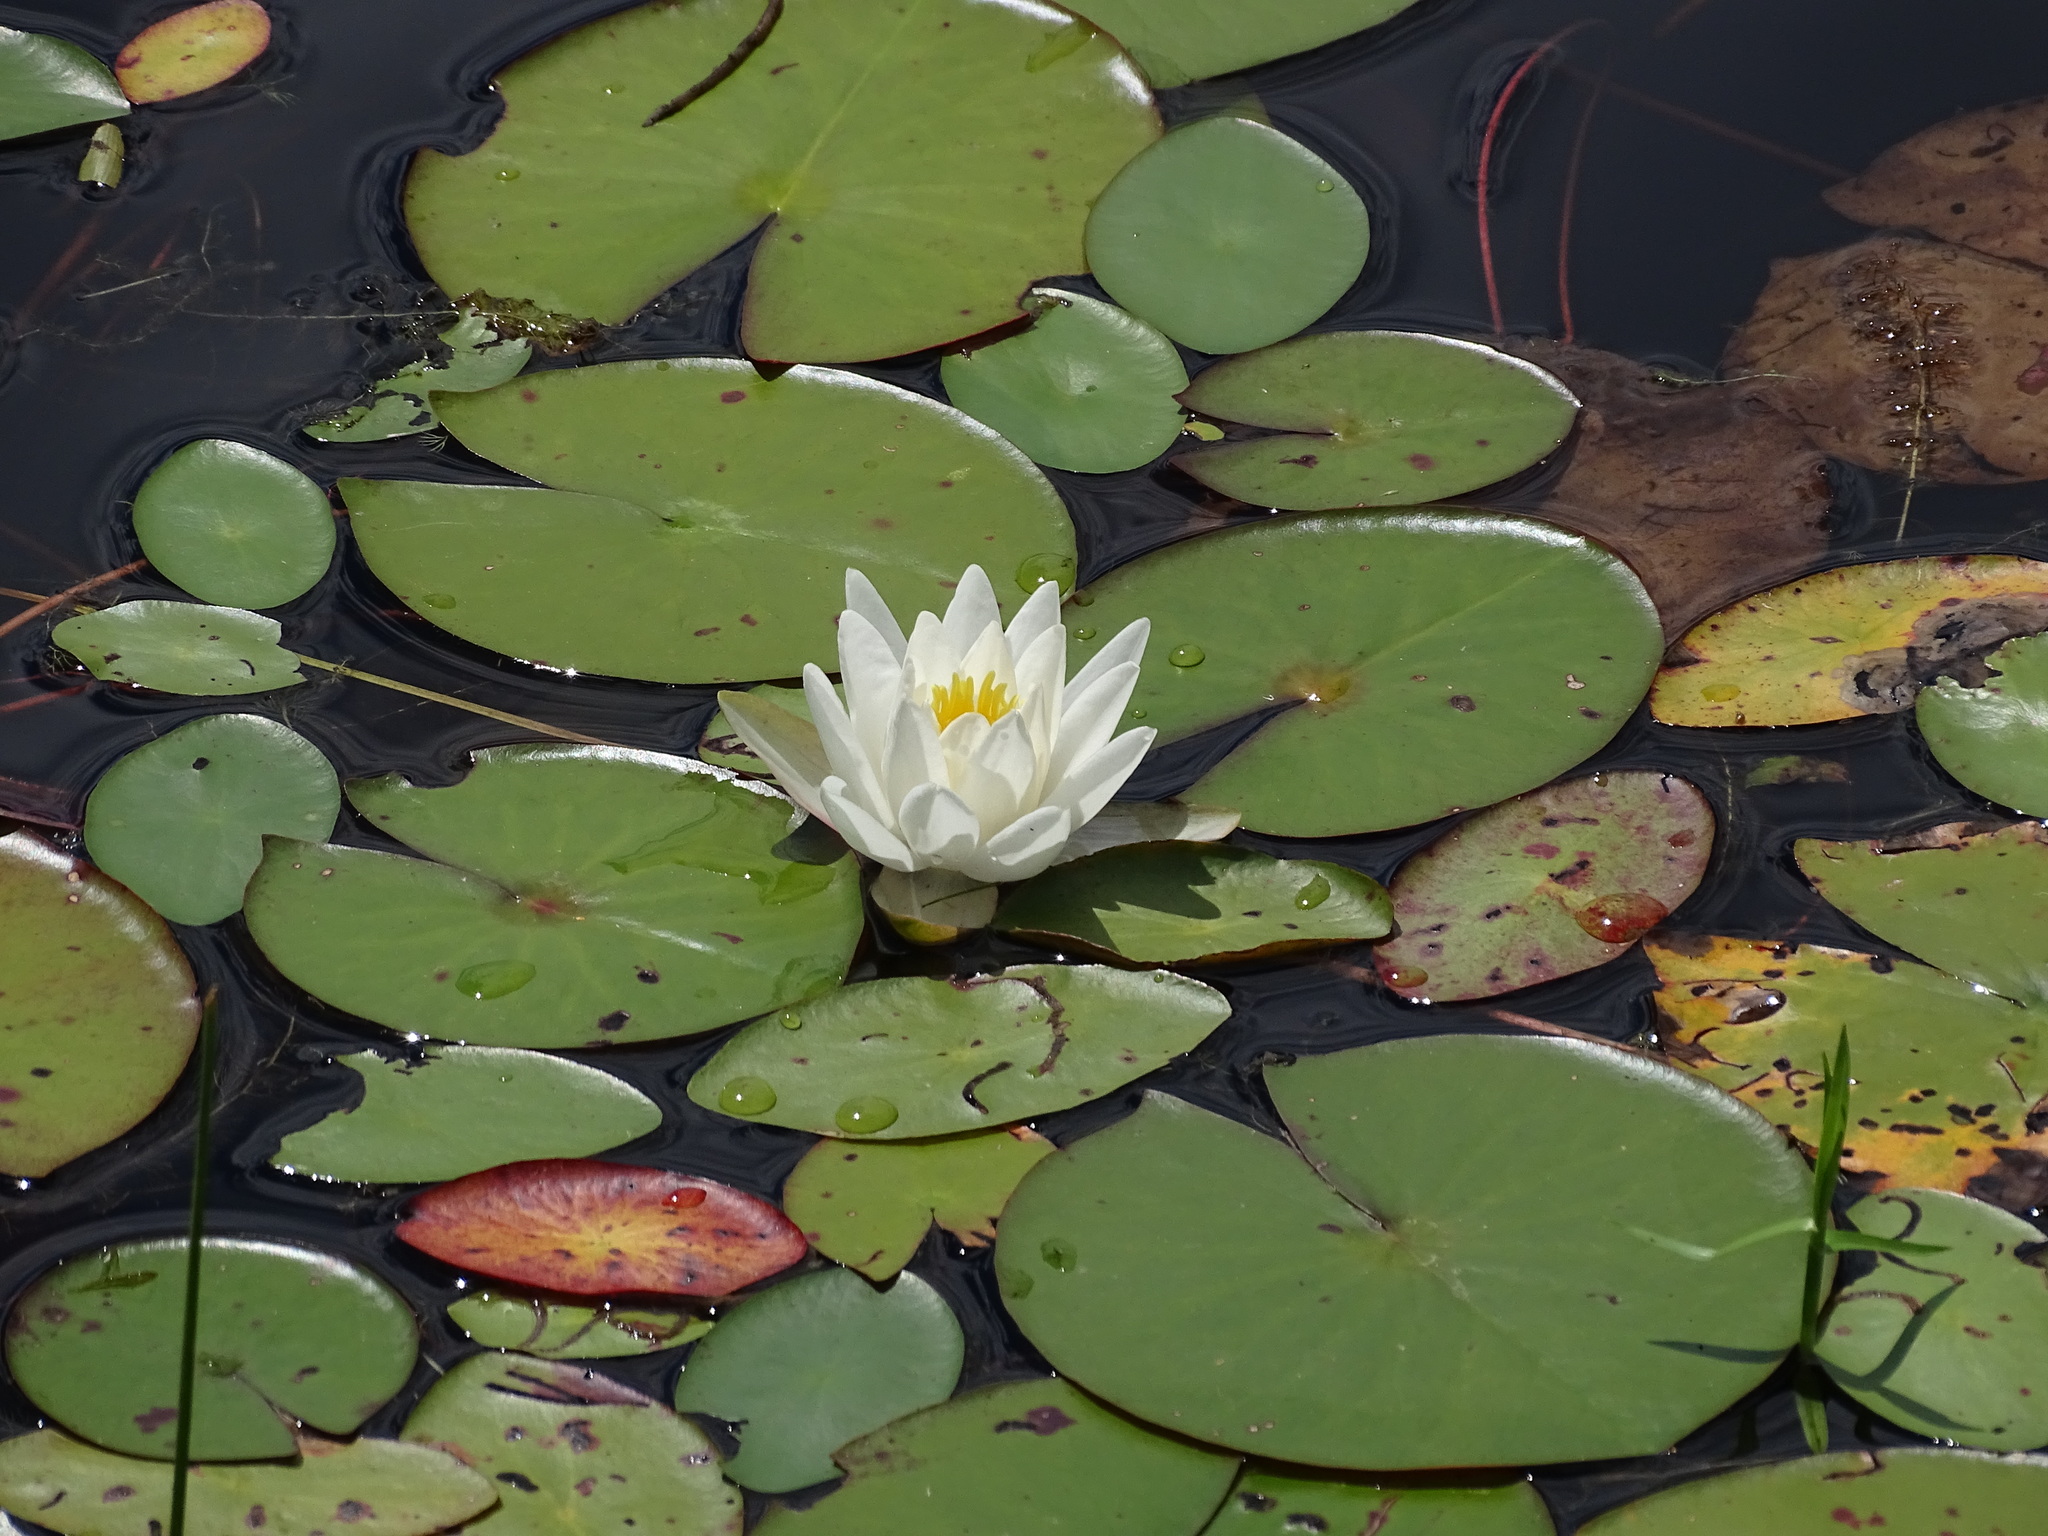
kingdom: Plantae
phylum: Tracheophyta
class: Magnoliopsida
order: Nymphaeales
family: Nymphaeaceae
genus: Nymphaea
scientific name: Nymphaea odorata
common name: Fragrant water-lily
